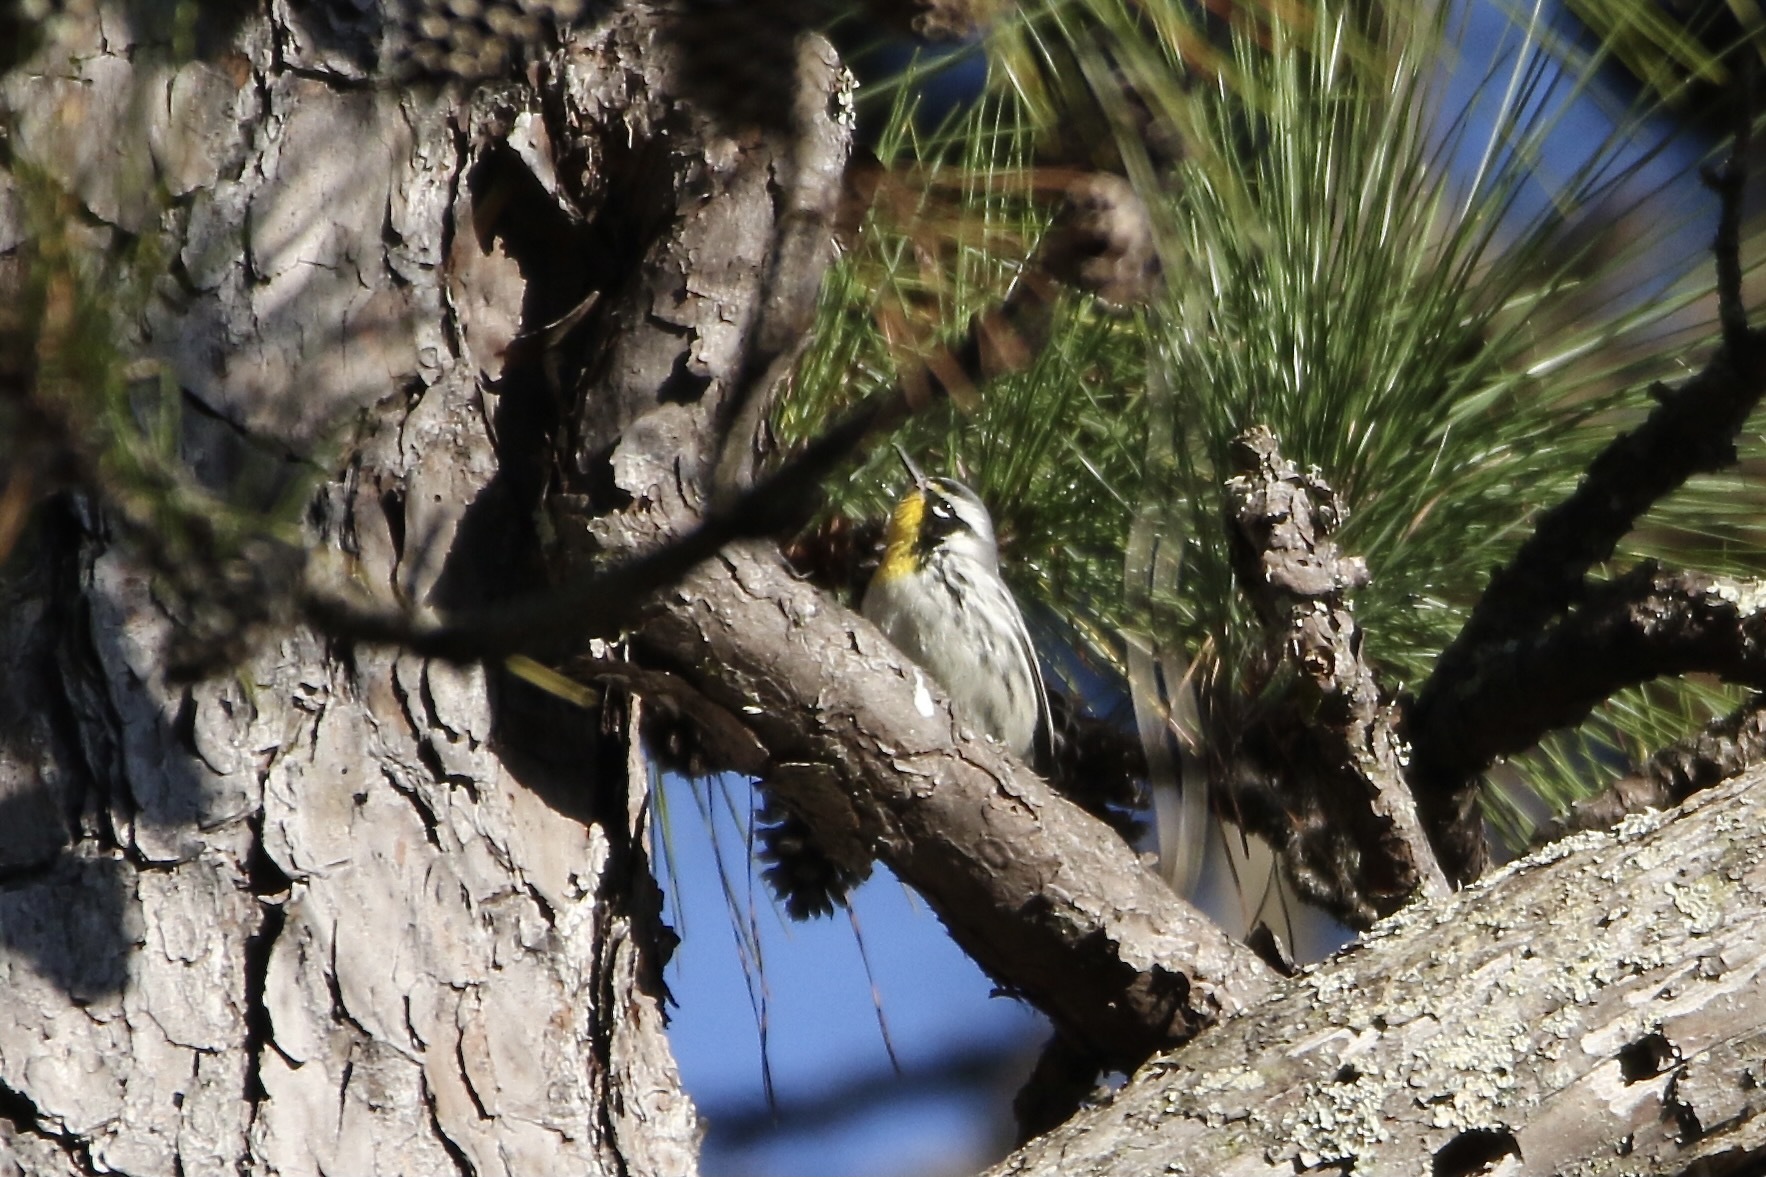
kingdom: Animalia
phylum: Chordata
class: Aves
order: Passeriformes
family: Parulidae
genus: Setophaga
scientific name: Setophaga dominica
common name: Yellow-throated warbler
